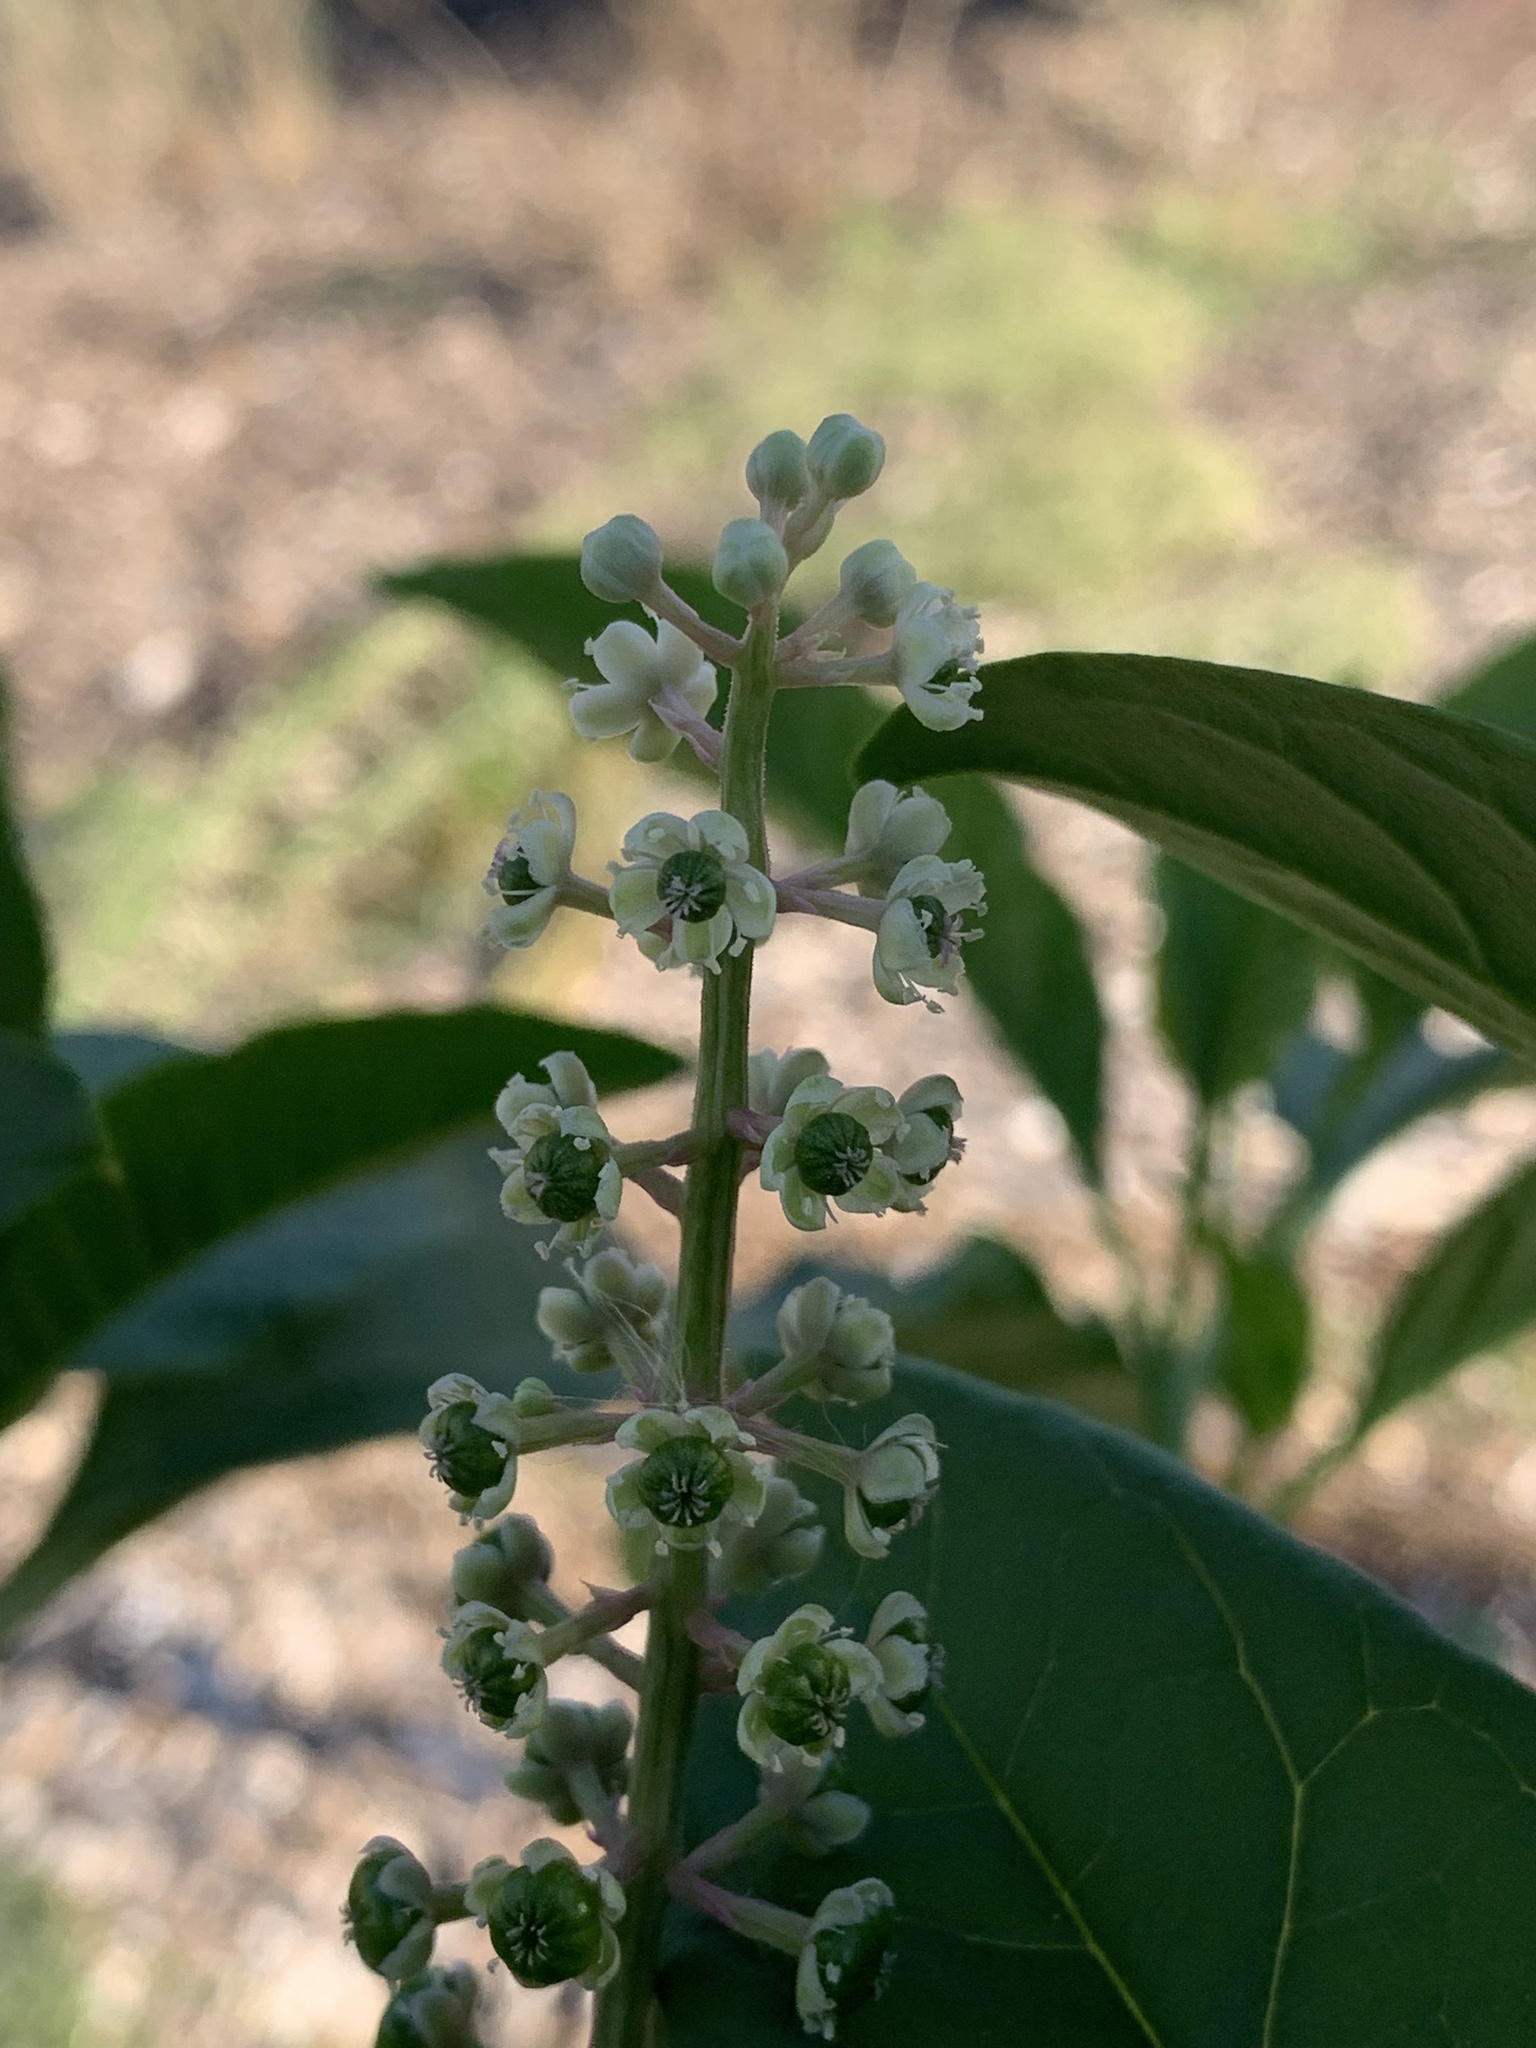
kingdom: Plantae
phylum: Tracheophyta
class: Magnoliopsida
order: Caryophyllales
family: Phytolaccaceae
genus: Phytolacca
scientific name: Phytolacca americana
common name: American pokeweed
